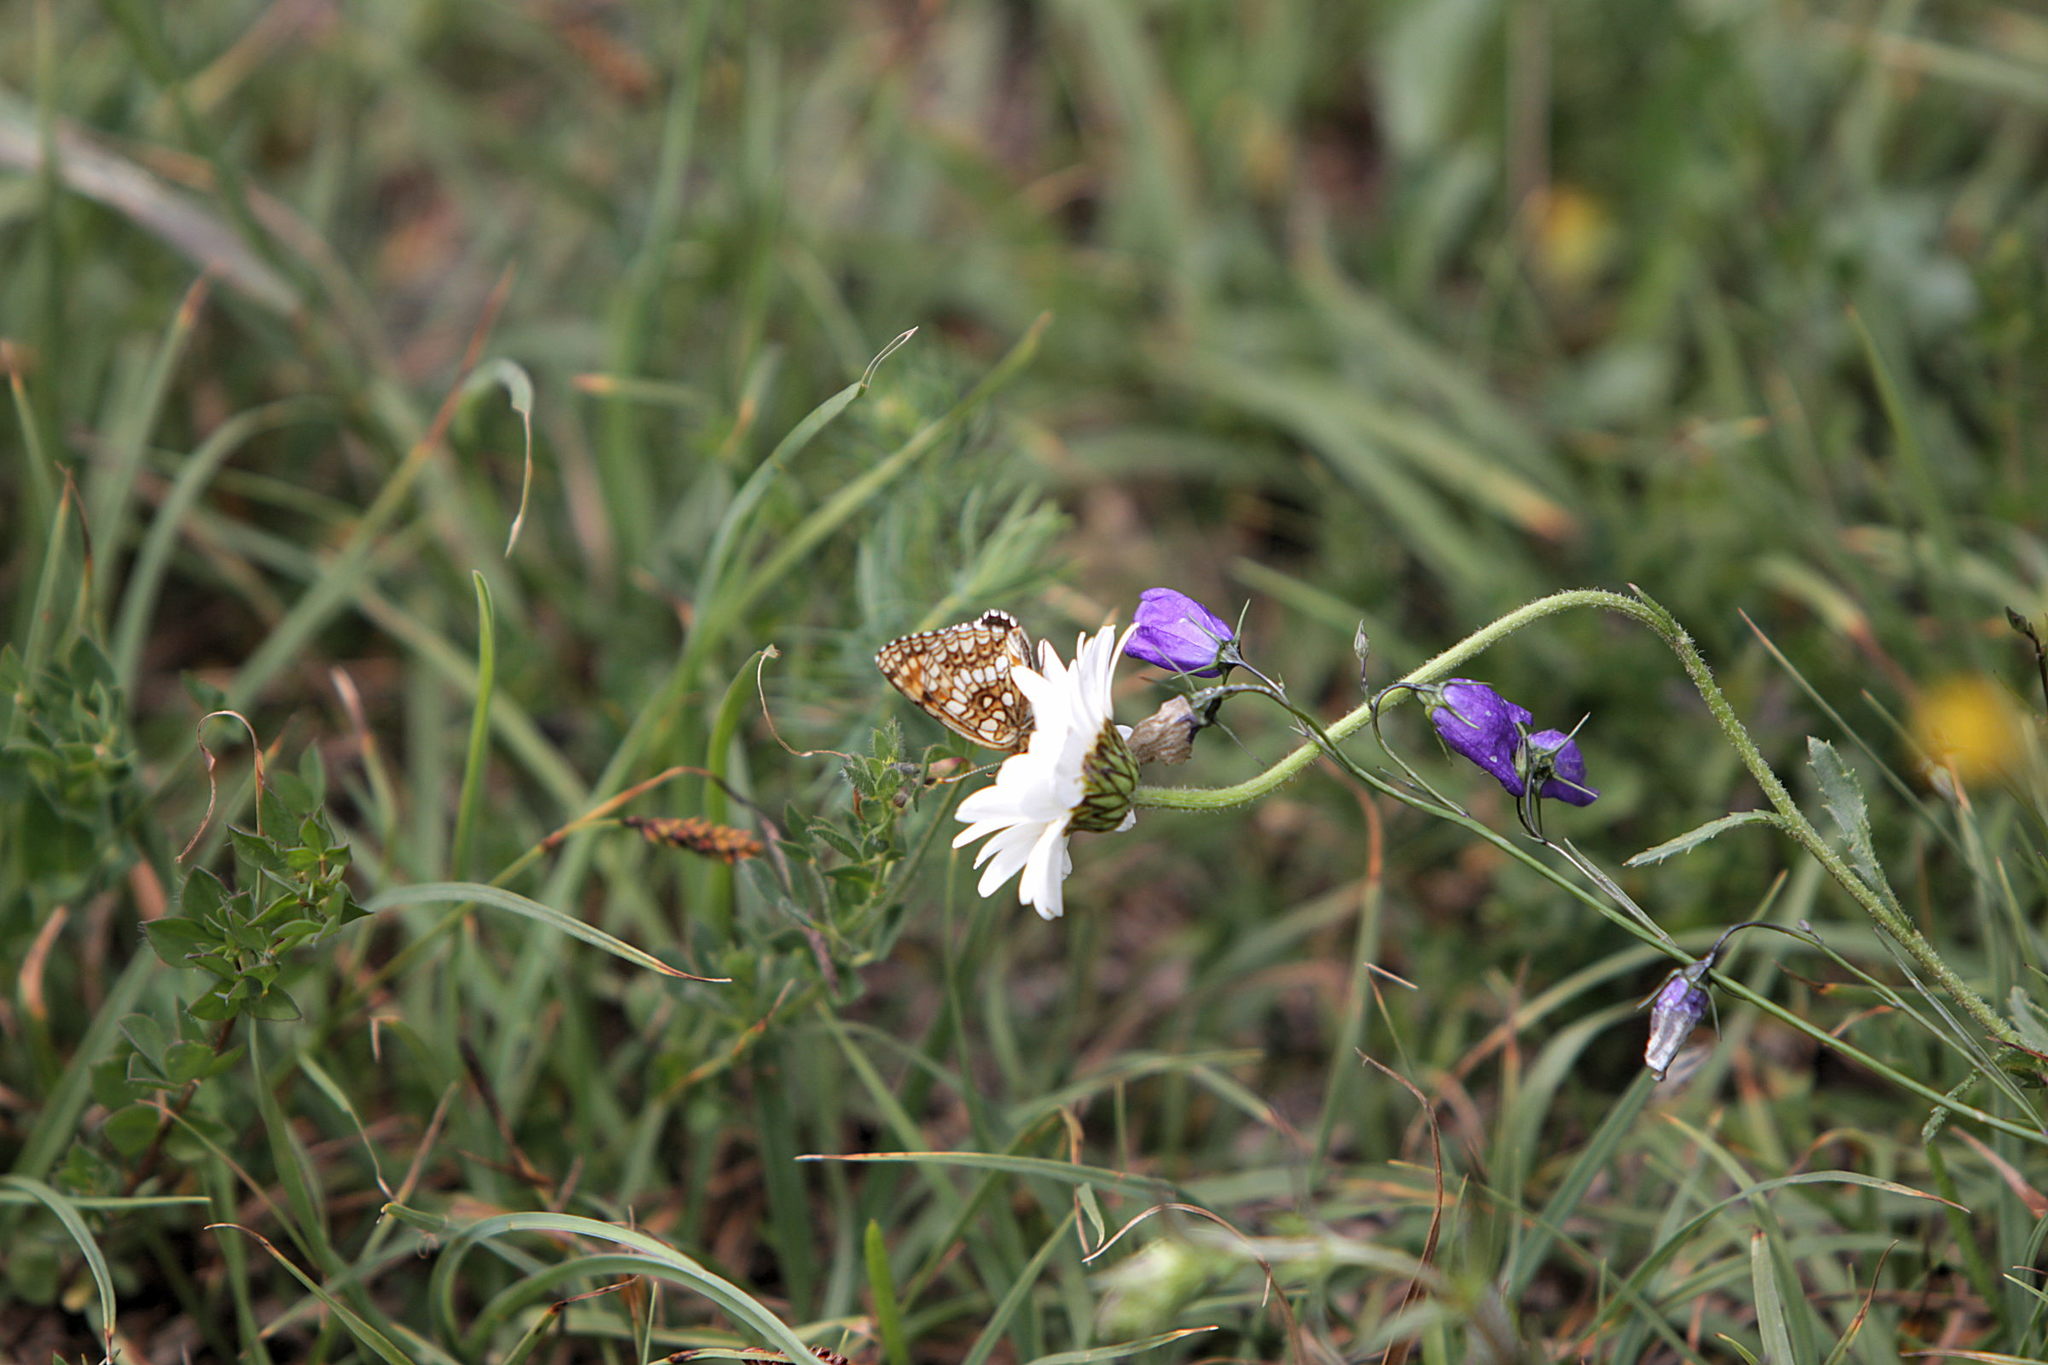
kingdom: Animalia
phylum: Arthropoda
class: Insecta
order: Lepidoptera
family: Nymphalidae
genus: Melitaea
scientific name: Melitaea diamina
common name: False heath fritillary
